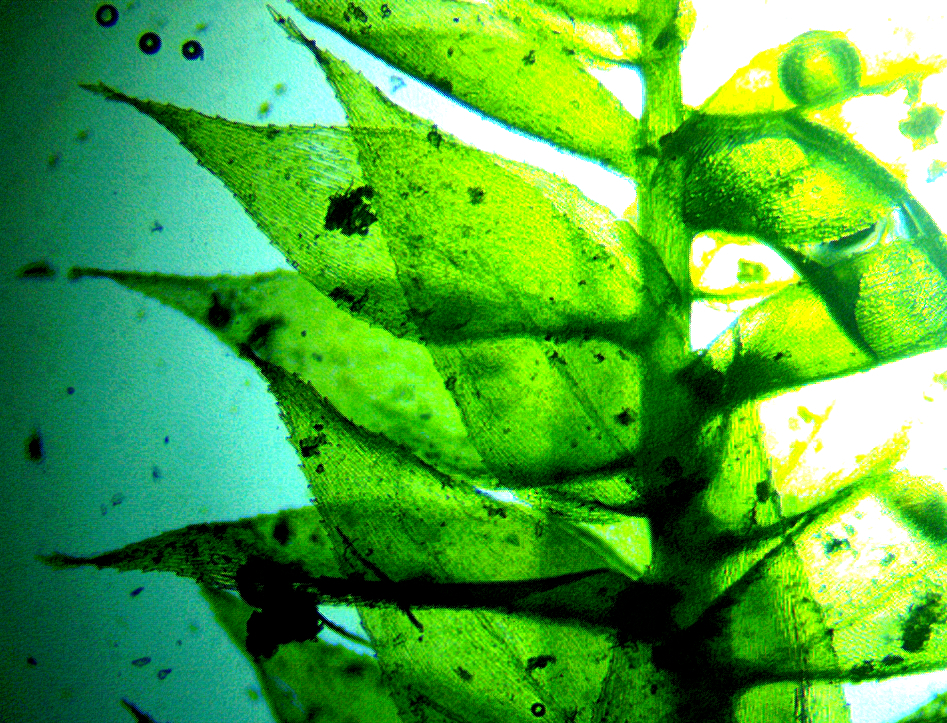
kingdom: Plantae
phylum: Bryophyta
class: Bryopsida
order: Hypnales
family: Brachytheciaceae
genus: Rhynchostegium
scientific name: Rhynchostegium serrulatum
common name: Serrulate-leaved long-beaked moss
